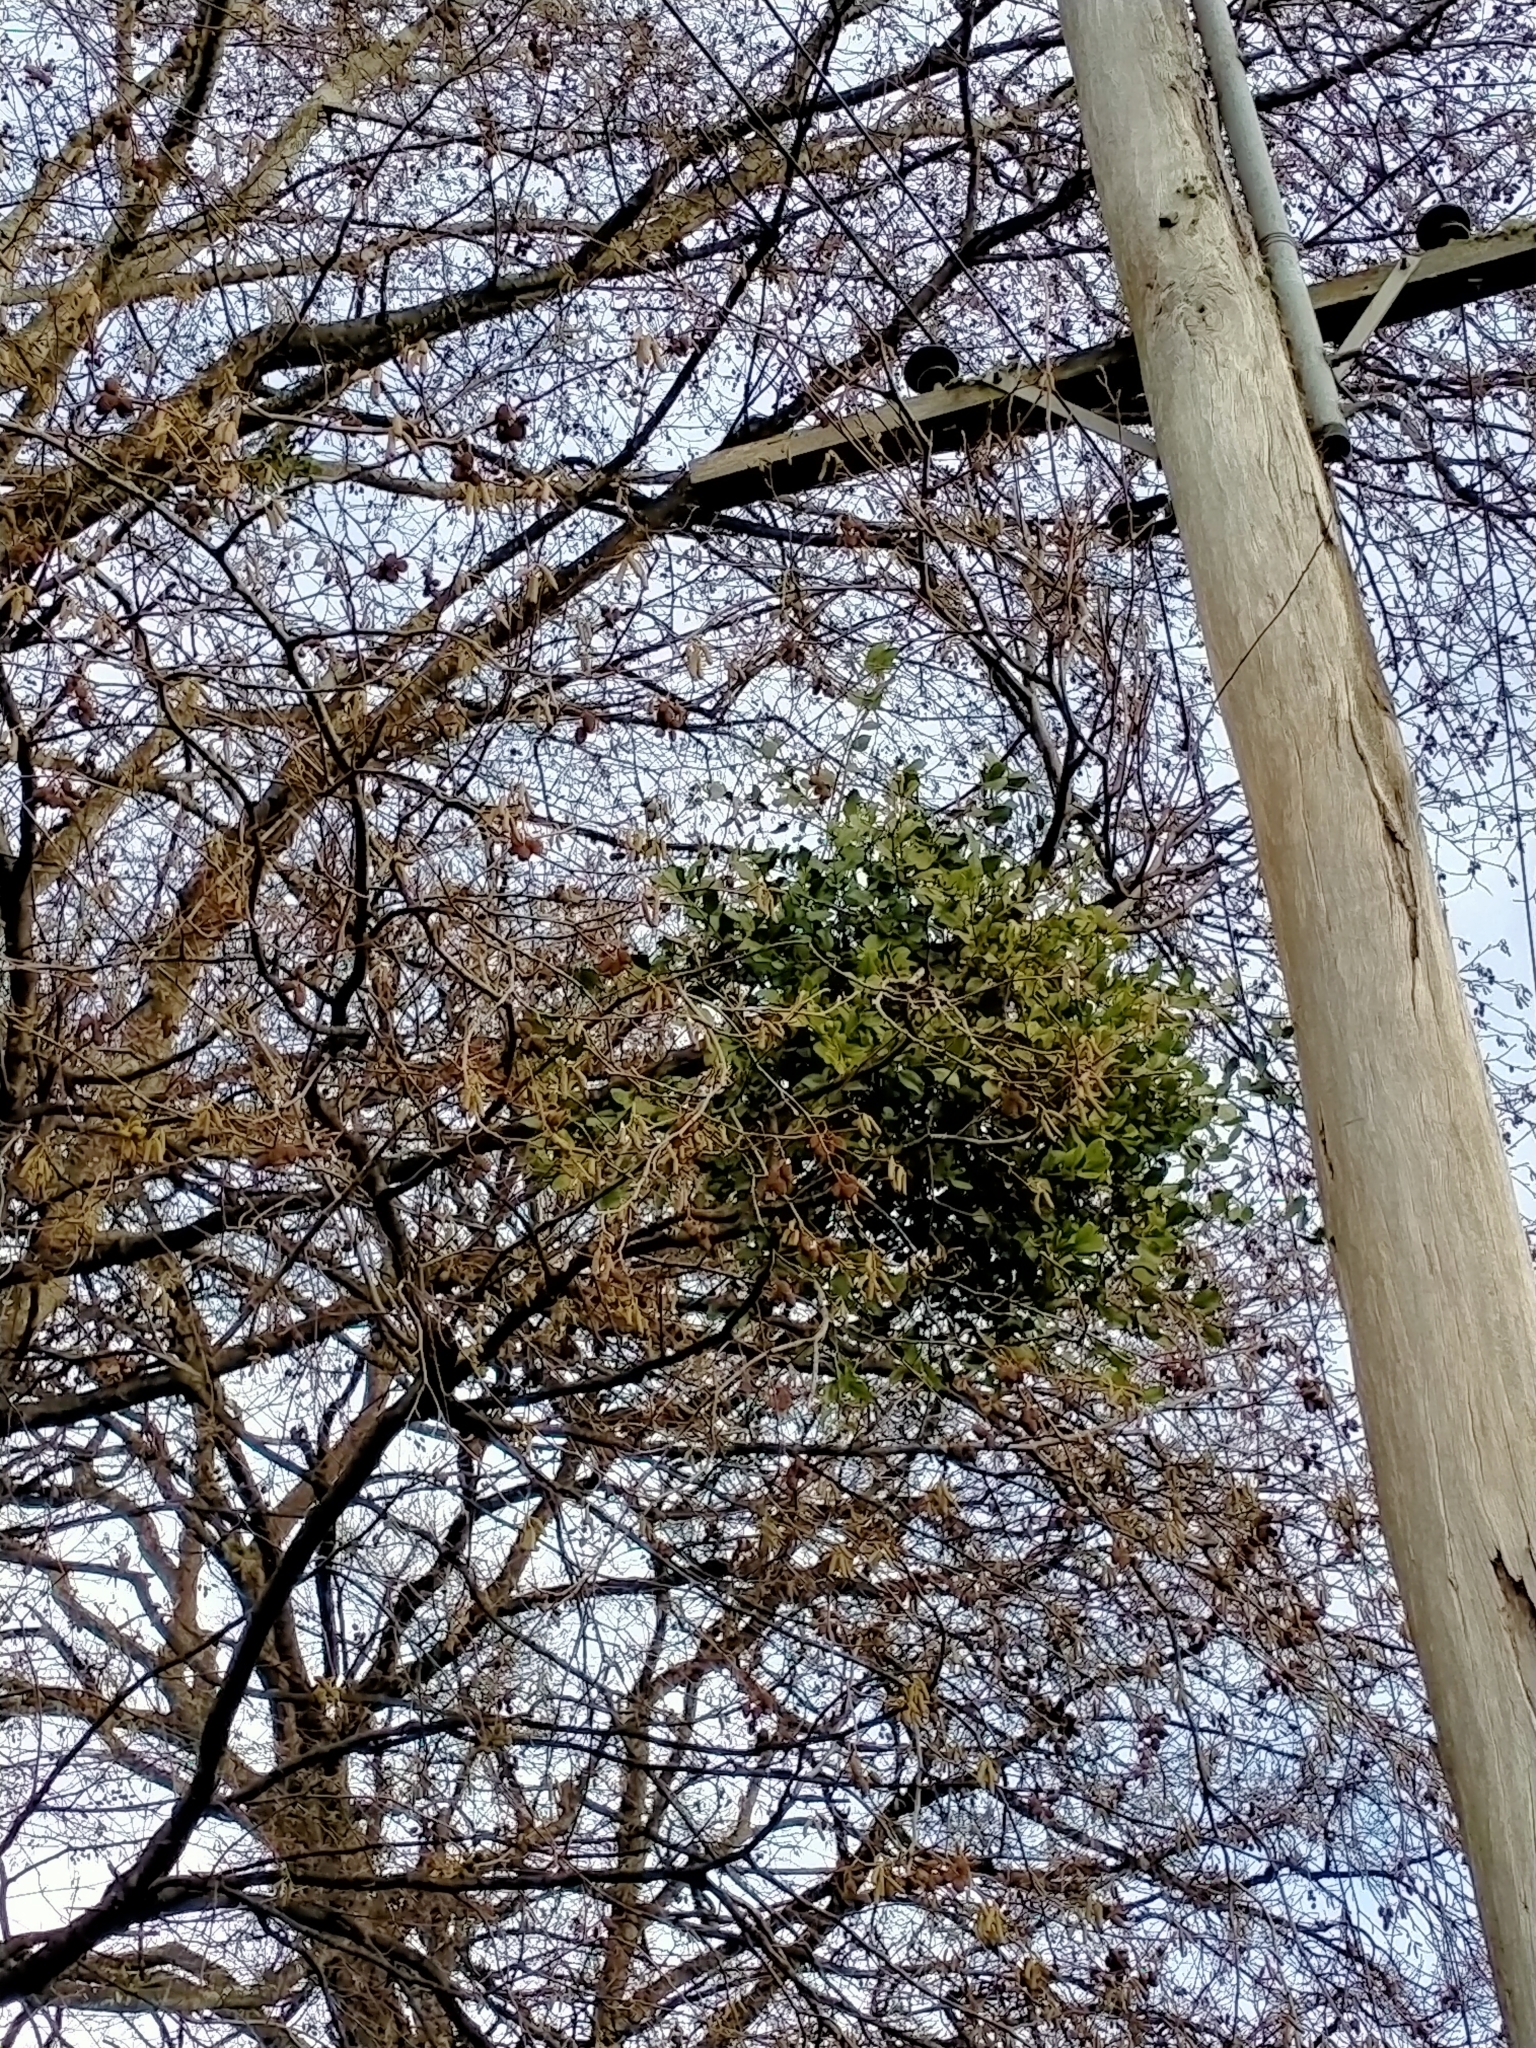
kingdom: Plantae
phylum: Tracheophyta
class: Magnoliopsida
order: Santalales
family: Loranthaceae
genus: Ileostylus
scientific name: Ileostylus micranthus
